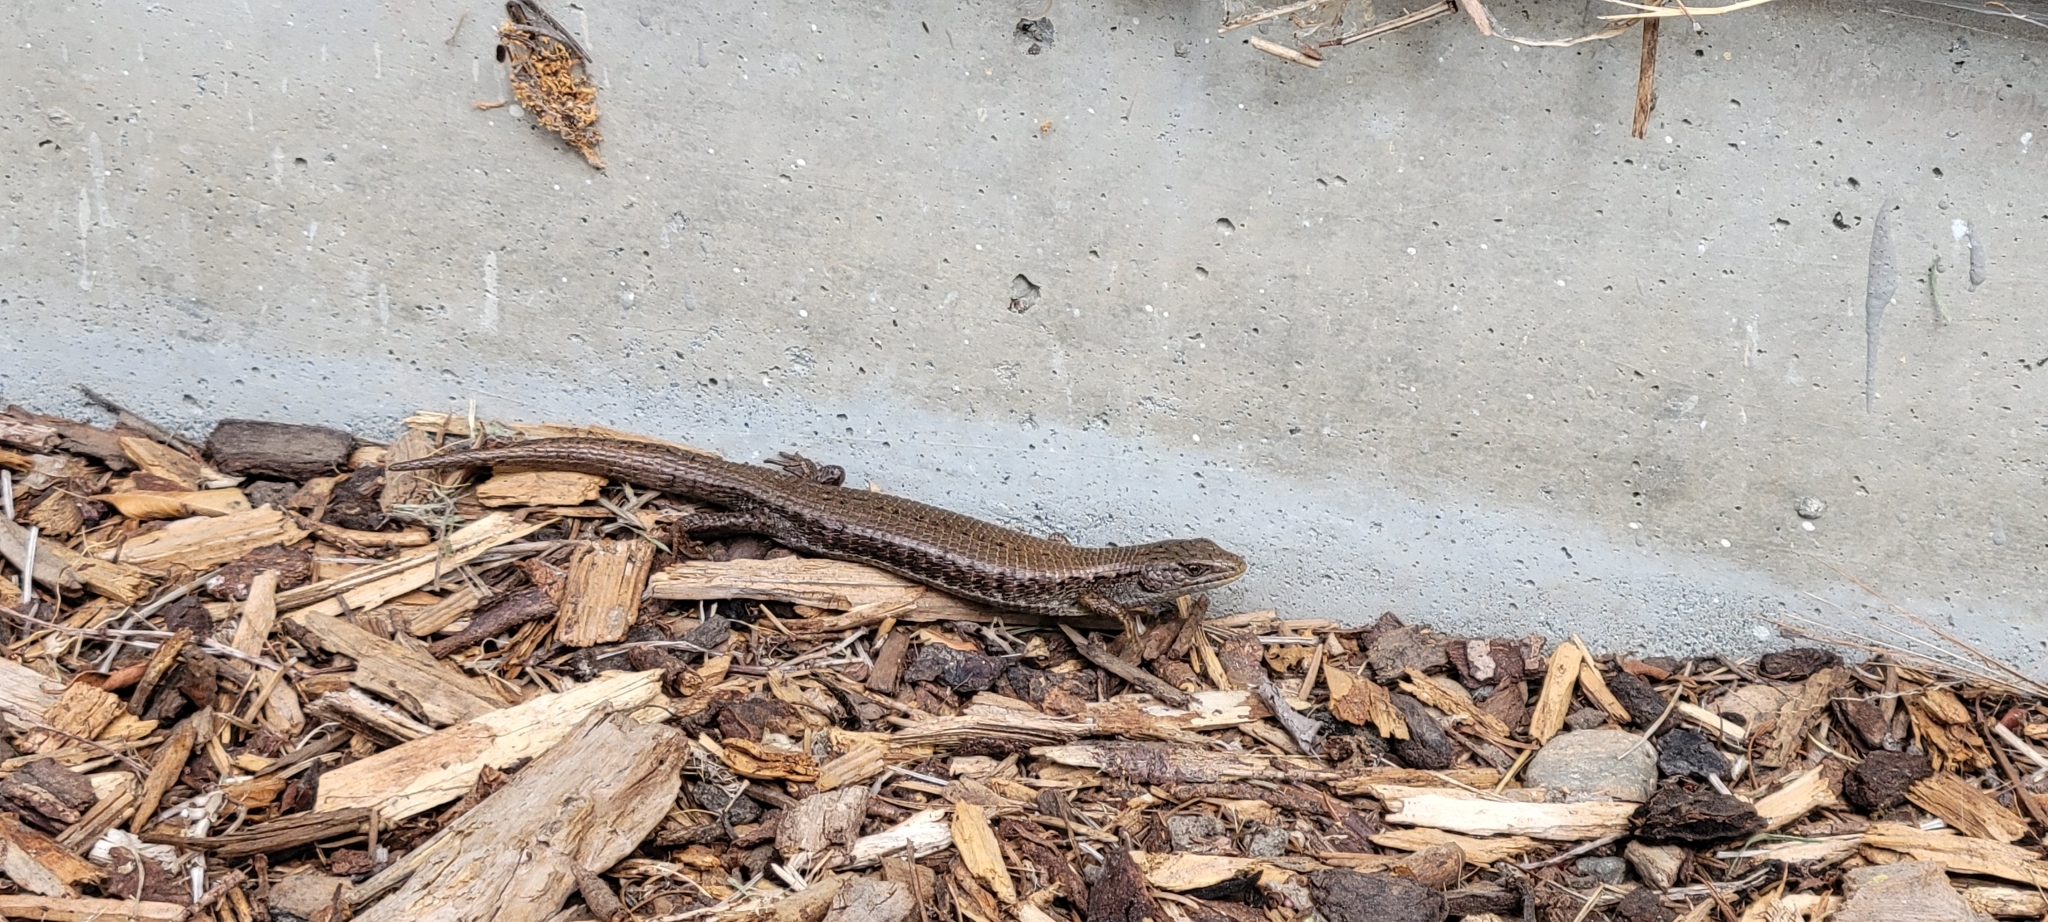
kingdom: Animalia
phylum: Chordata
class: Squamata
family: Anguidae
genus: Elgaria
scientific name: Elgaria coerulea
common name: Northern alligator lizard
